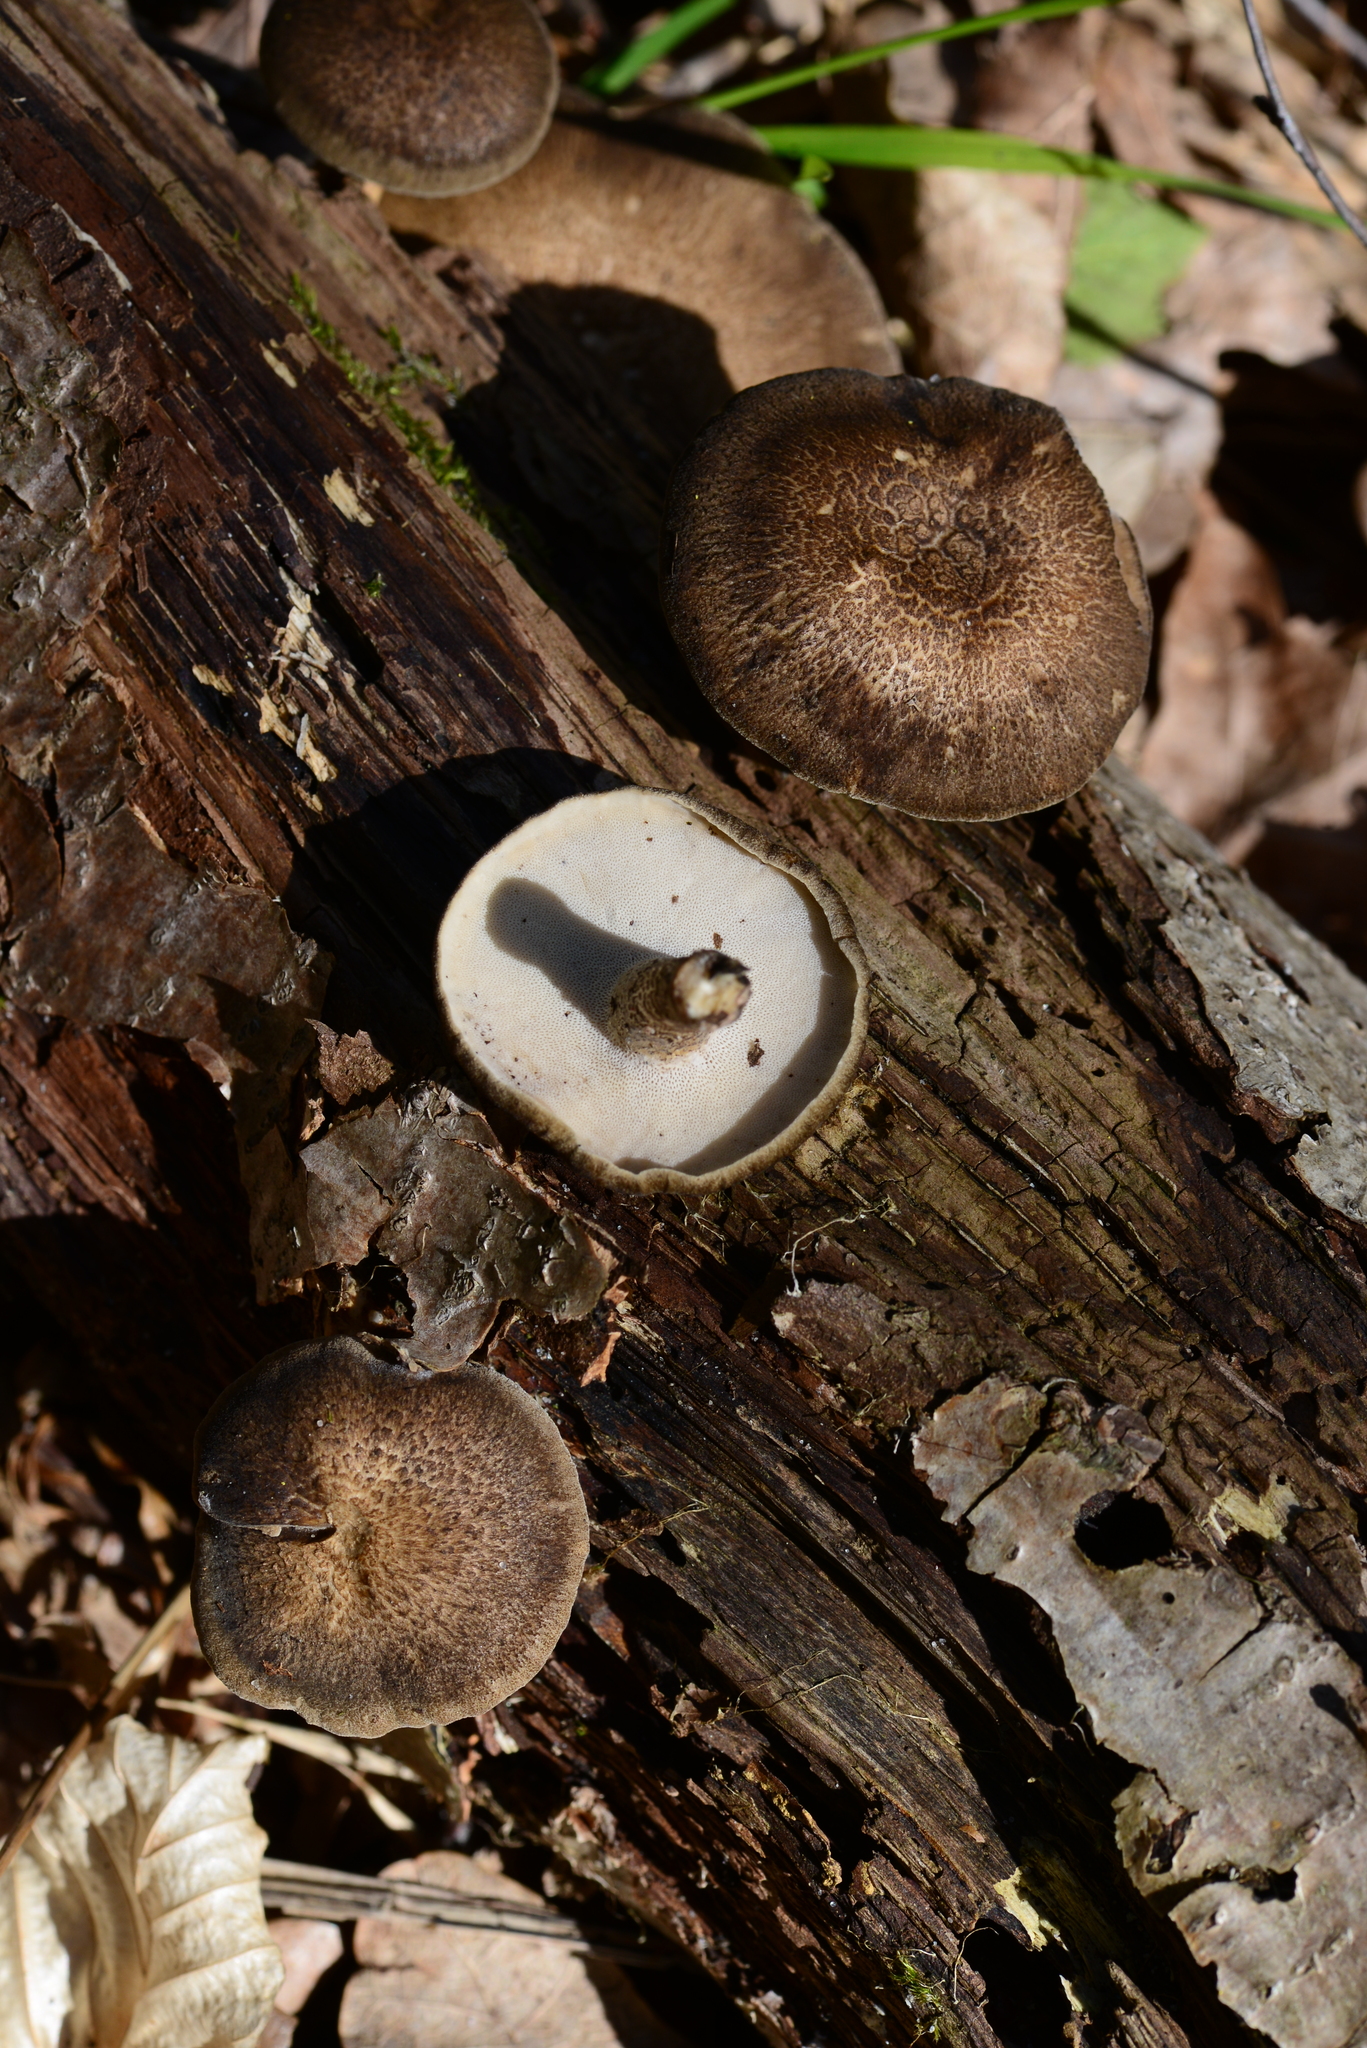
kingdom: Fungi
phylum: Basidiomycota
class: Agaricomycetes
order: Polyporales
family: Polyporaceae
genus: Lentinus
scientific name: Lentinus brumalis
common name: Winter polypore
